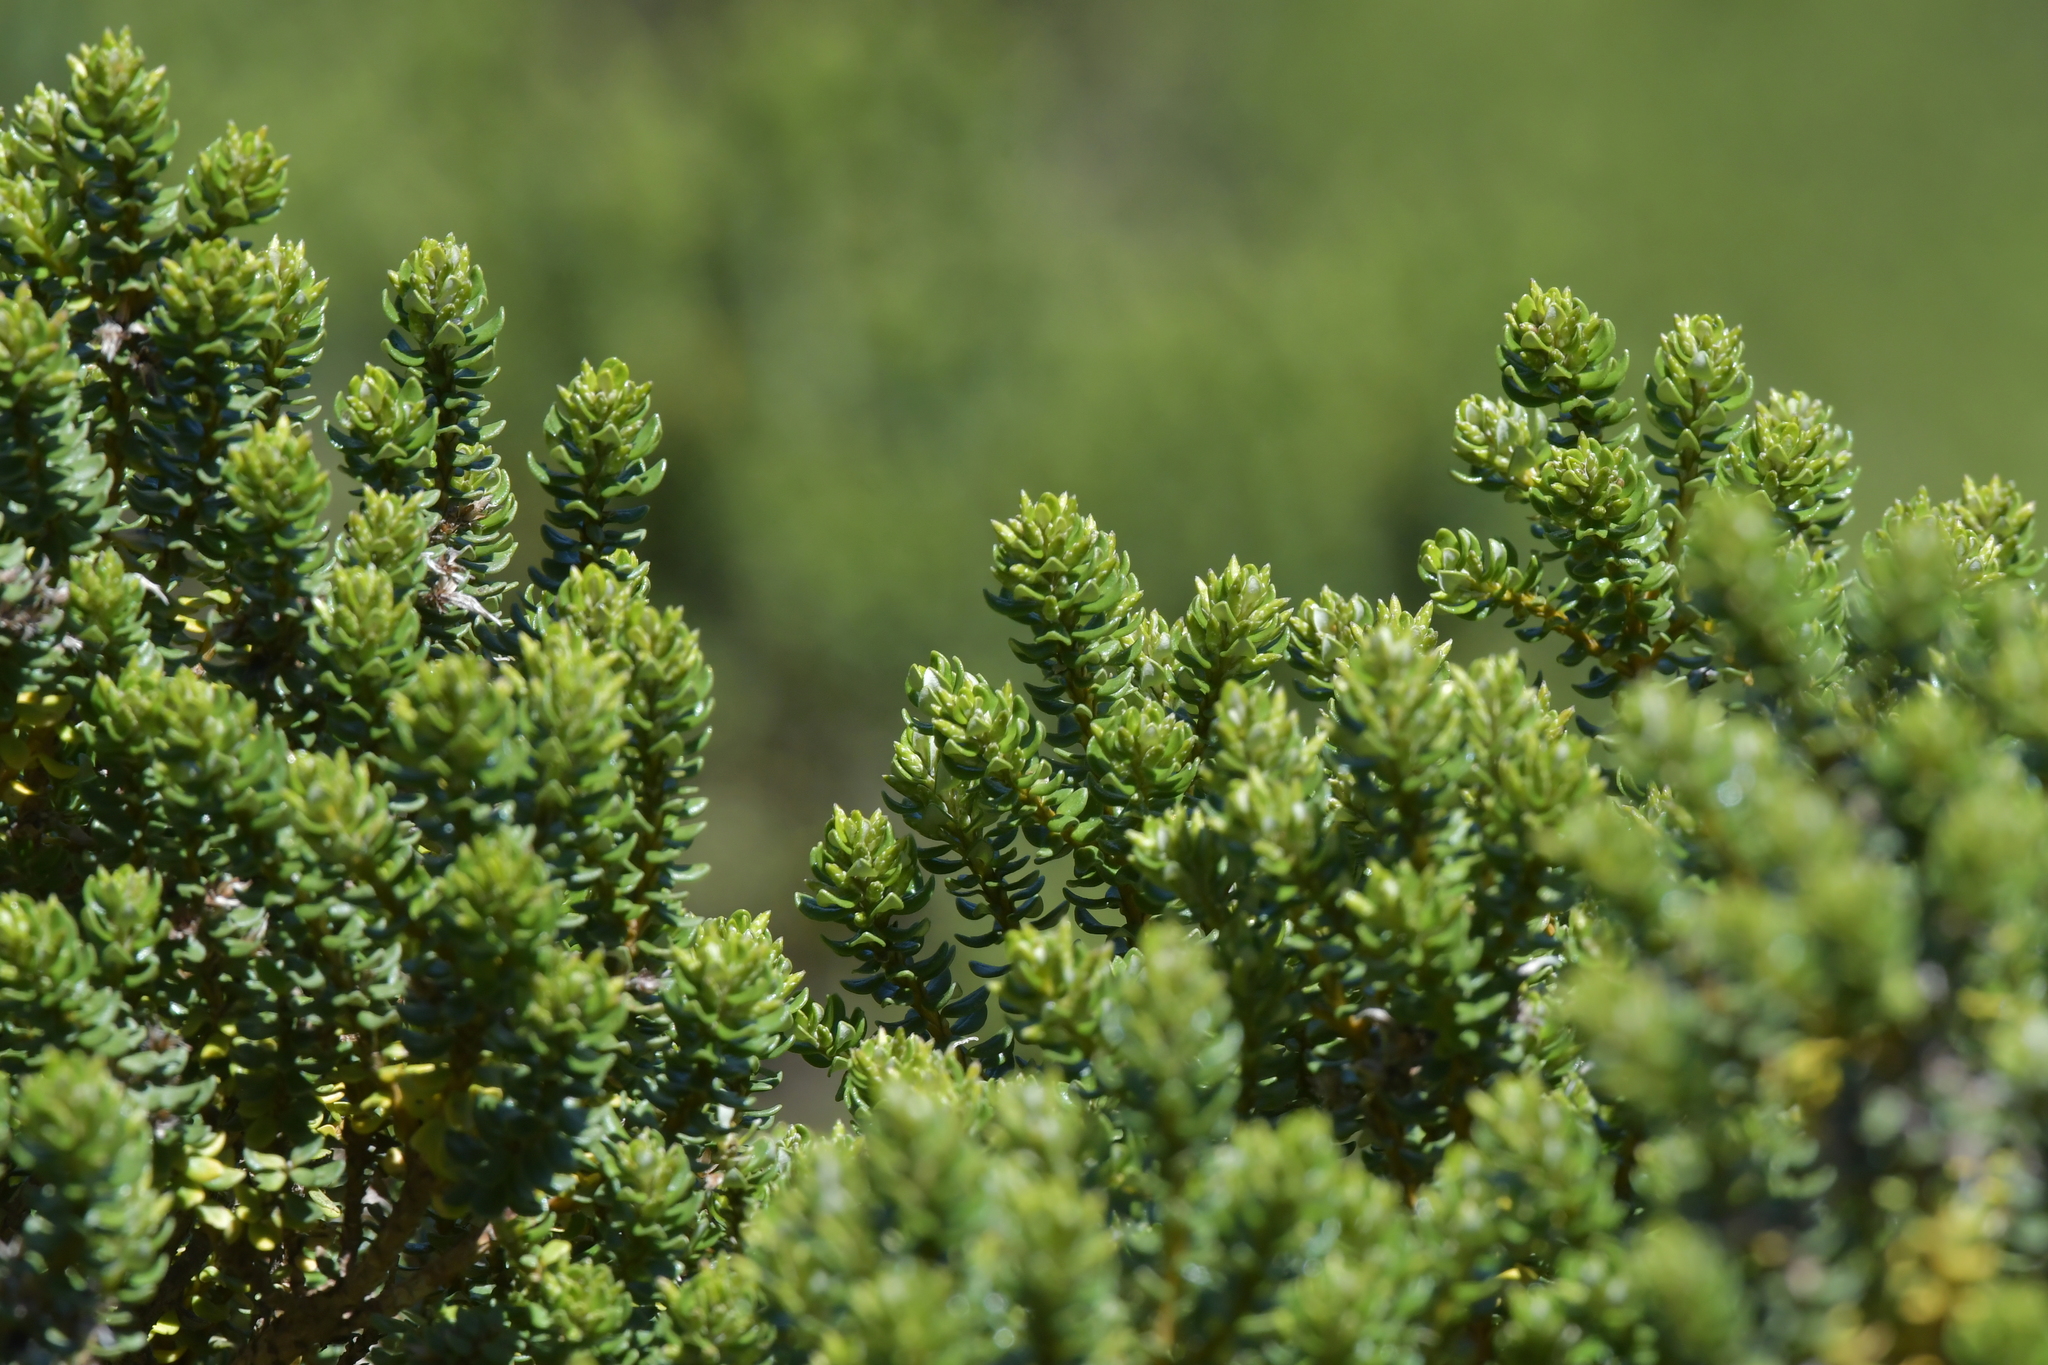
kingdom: Plantae
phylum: Tracheophyta
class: Magnoliopsida
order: Asterales
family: Asteraceae
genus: Olearia
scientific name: Olearia nummularifolia
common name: Sticky daisybush
